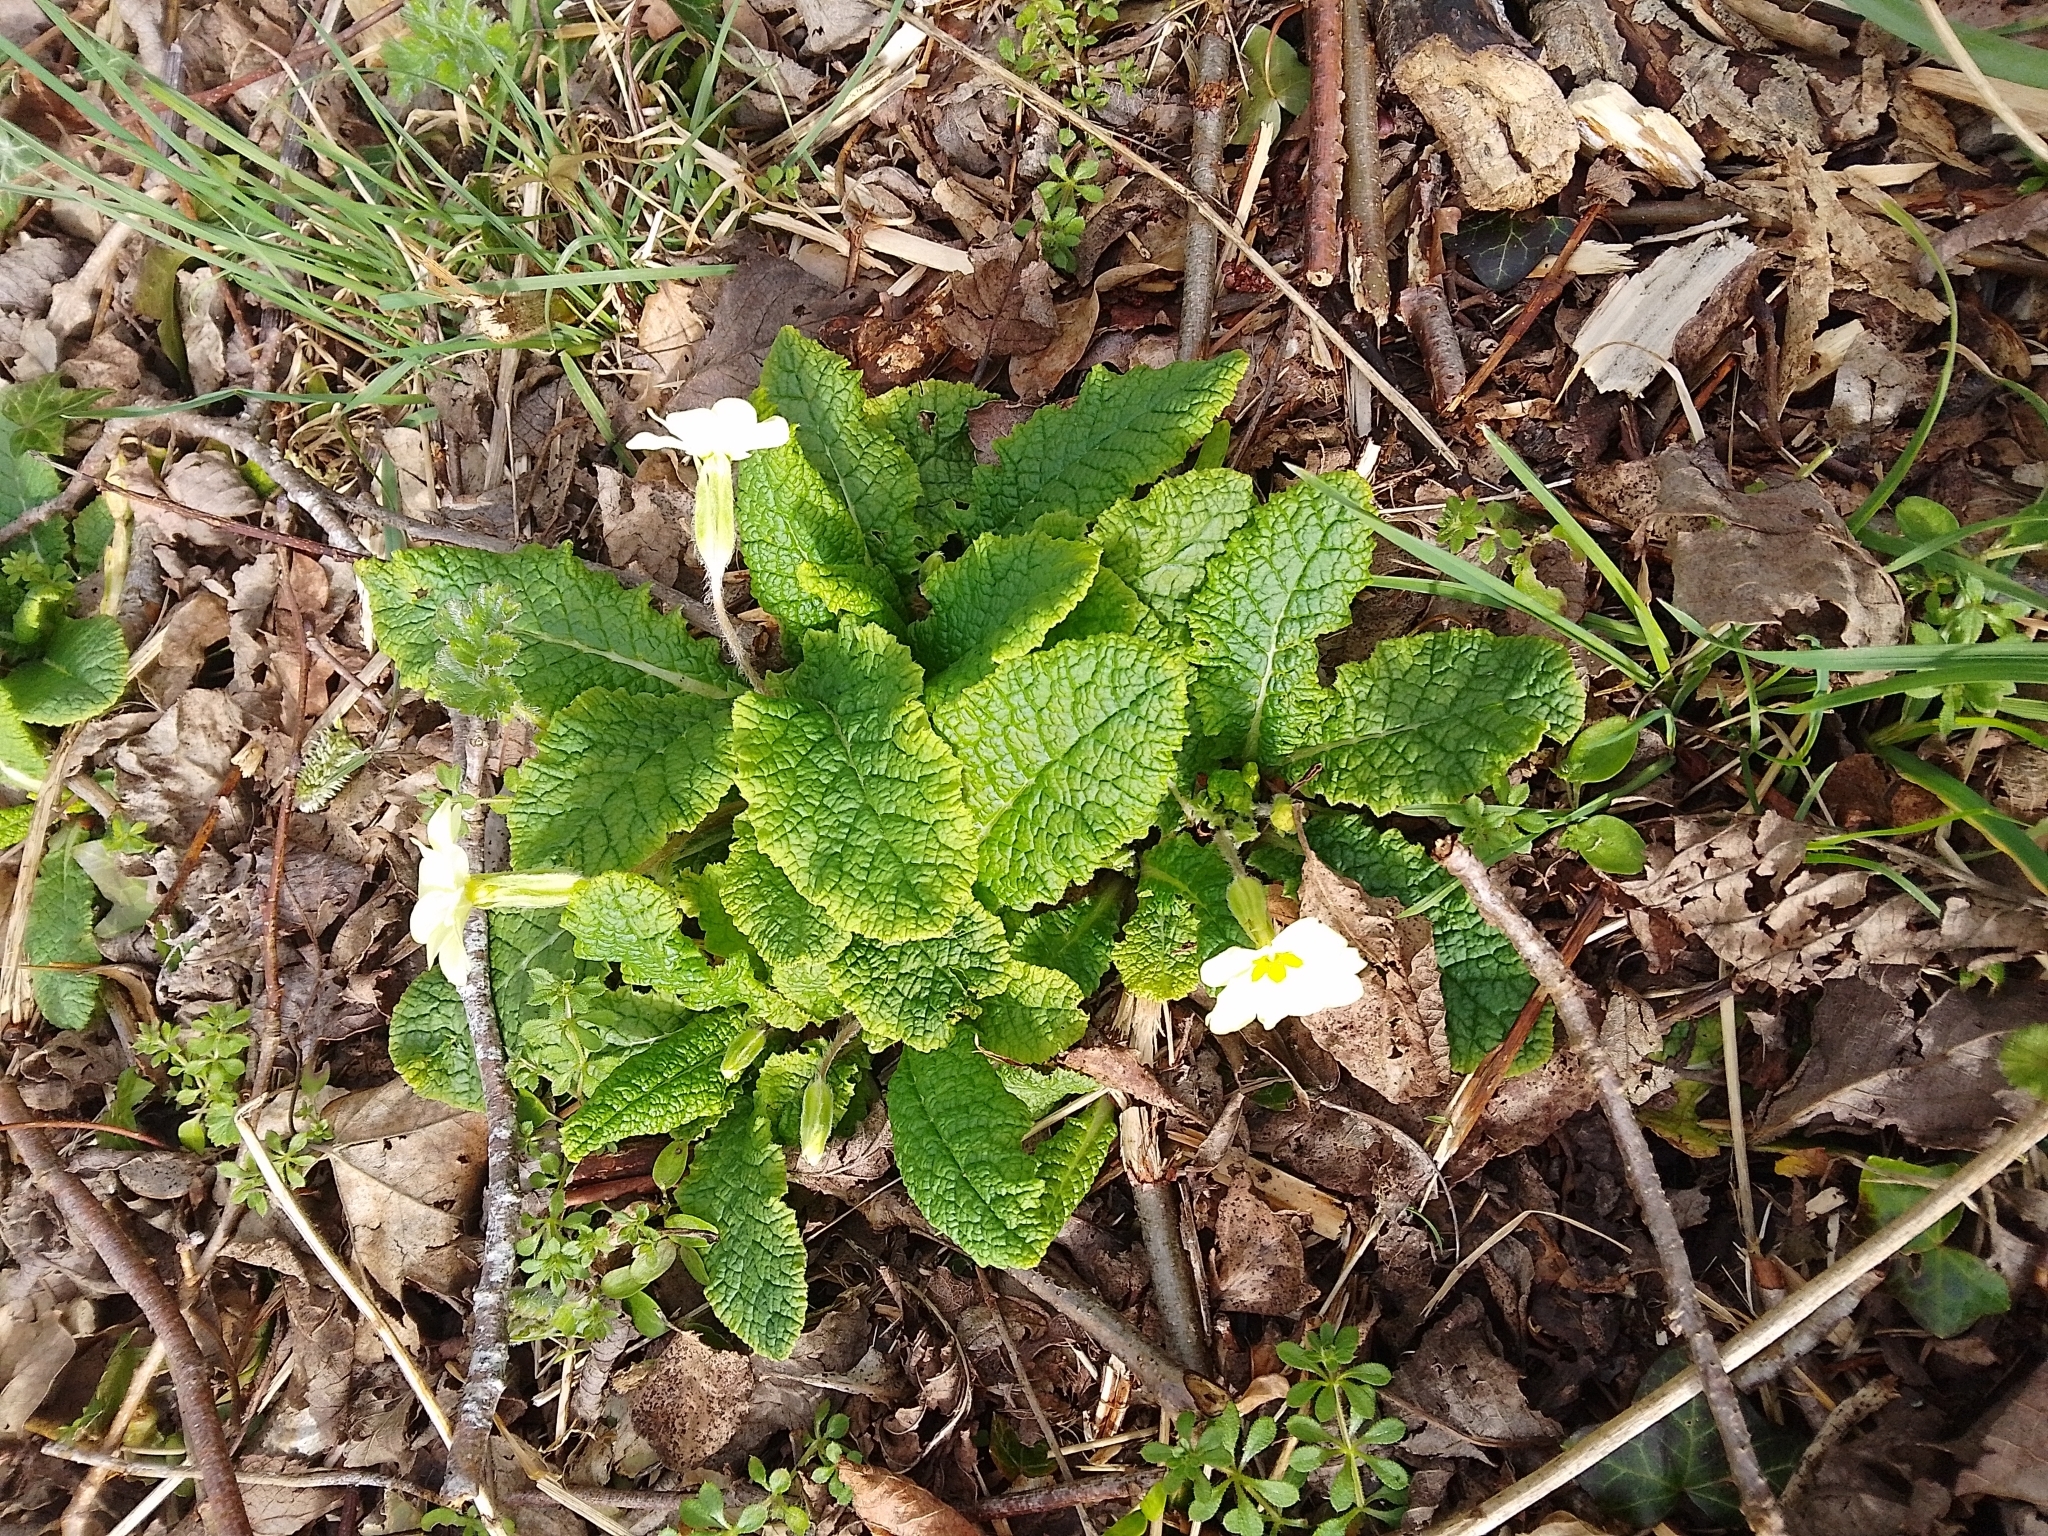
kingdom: Plantae
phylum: Tracheophyta
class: Magnoliopsida
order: Ericales
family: Primulaceae
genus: Primula
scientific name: Primula vulgaris
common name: Primrose
